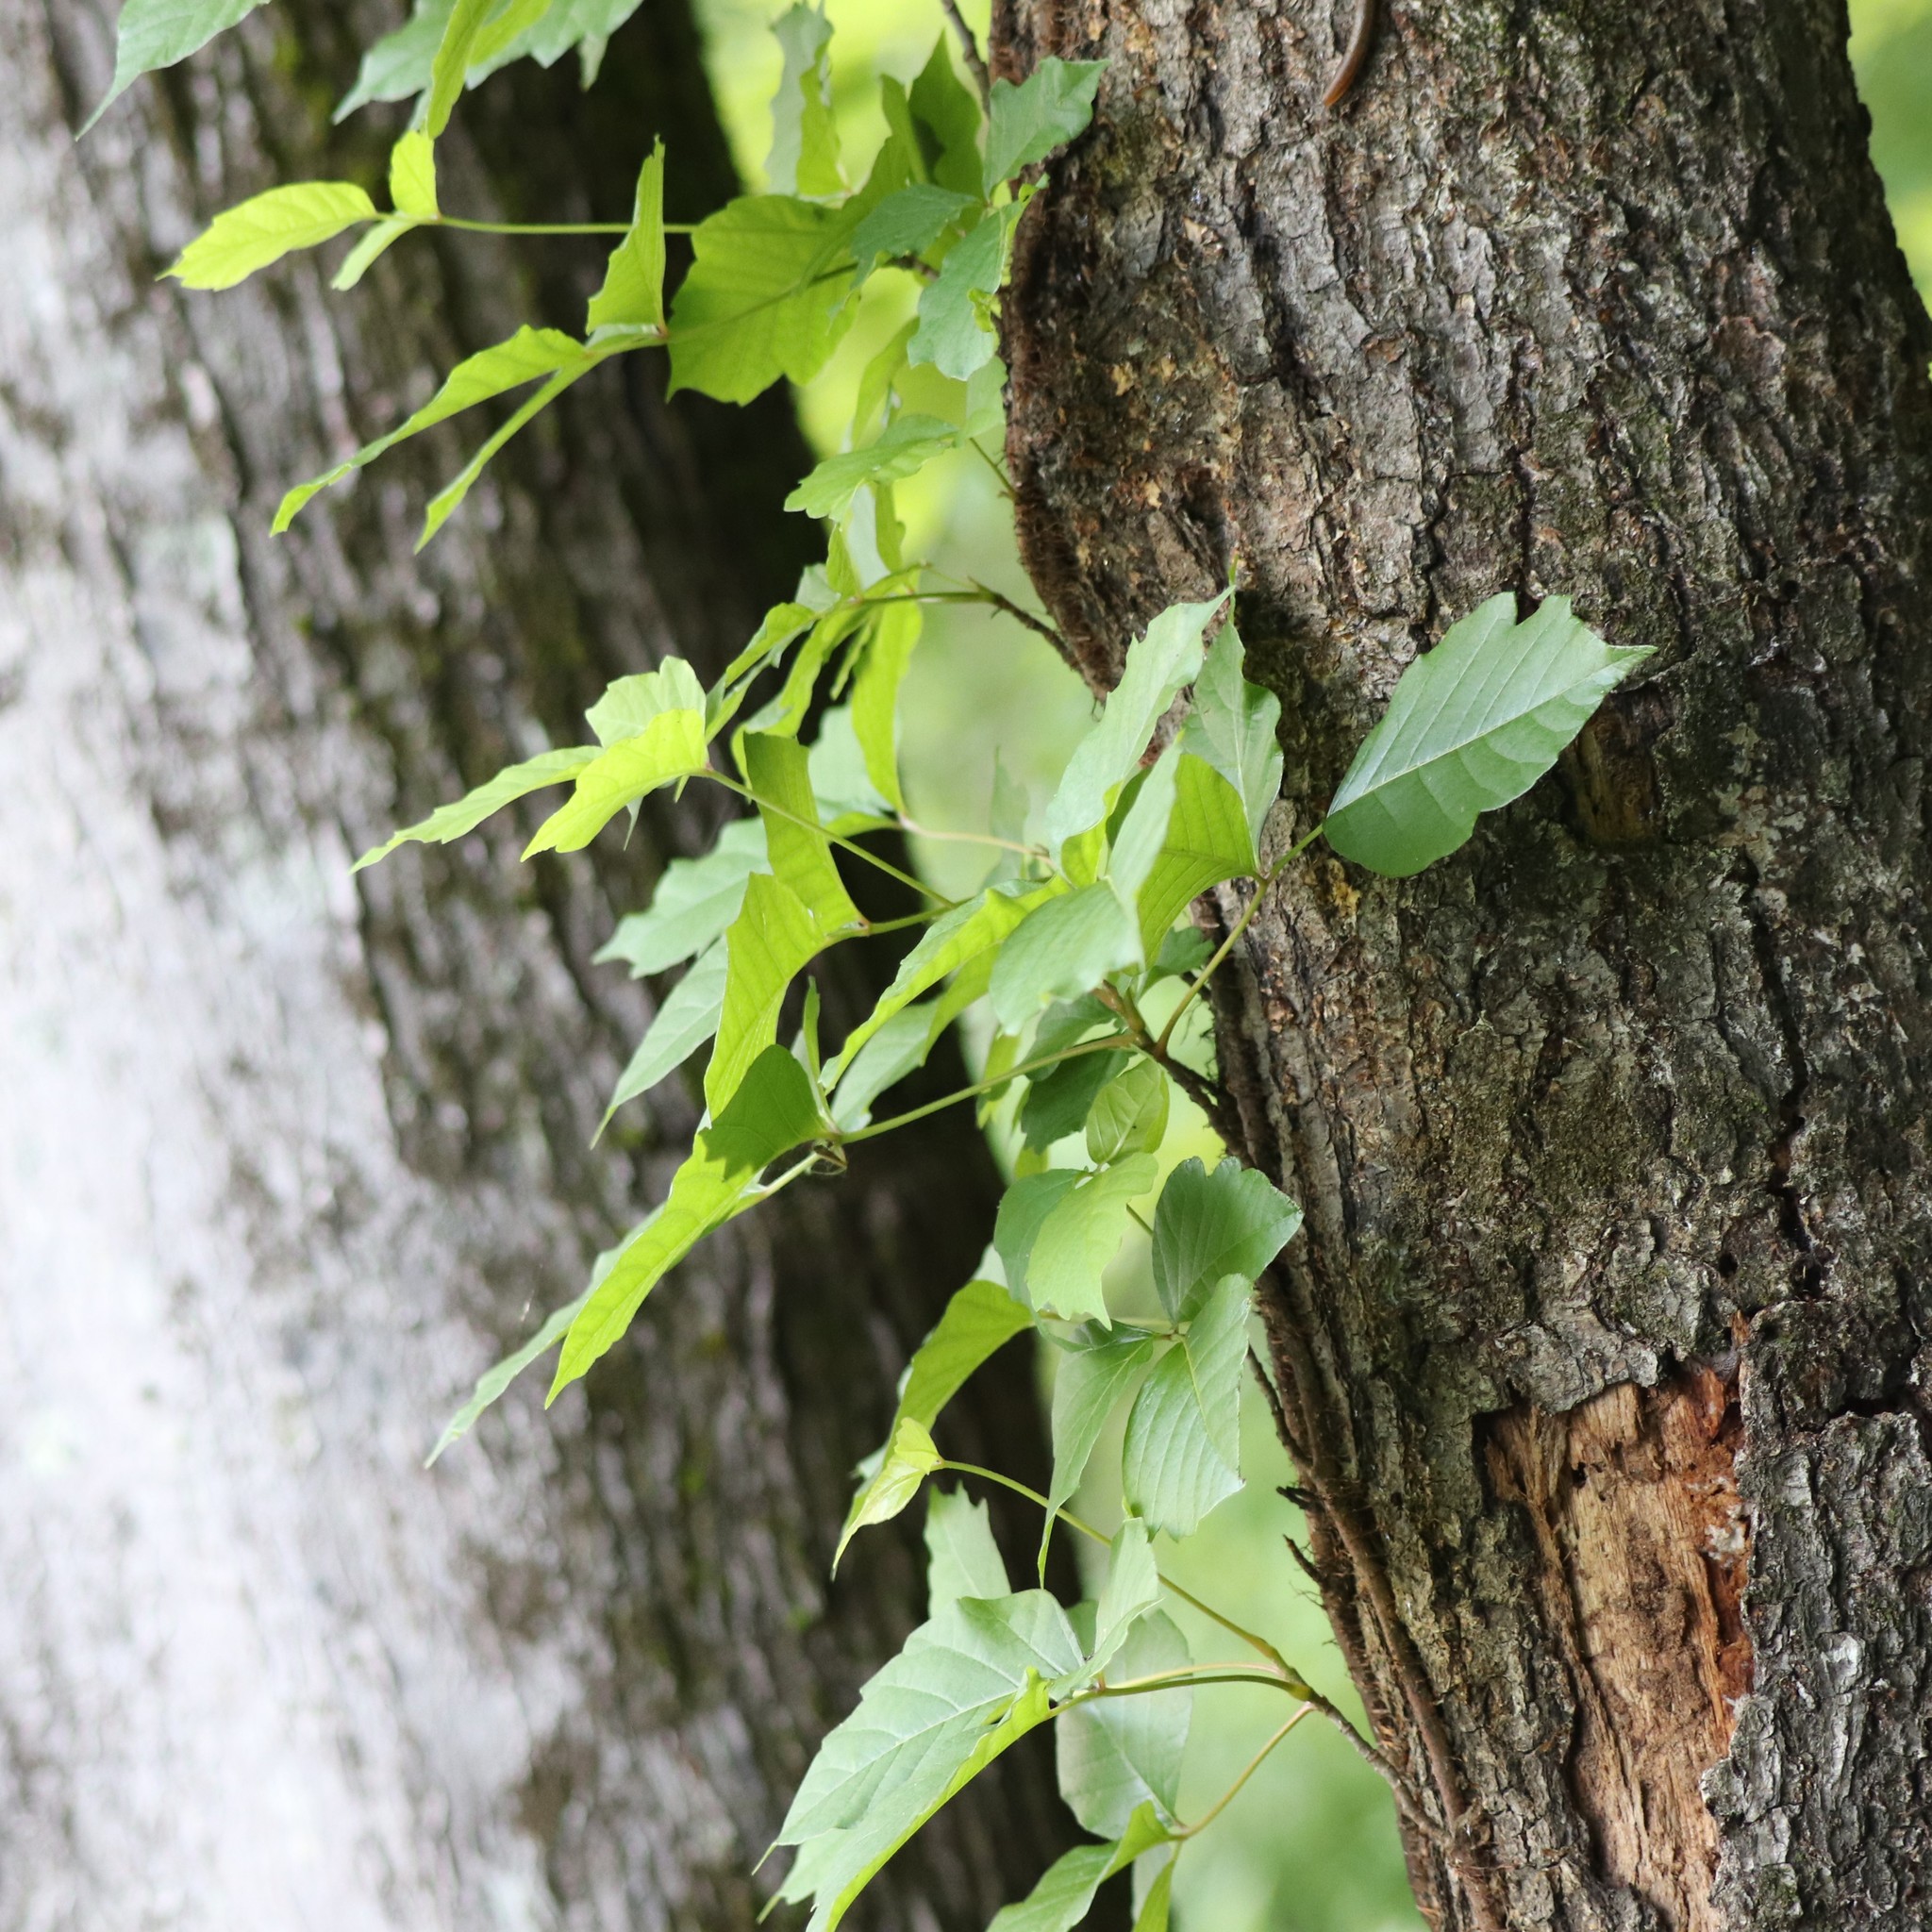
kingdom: Plantae
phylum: Tracheophyta
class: Magnoliopsida
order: Sapindales
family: Anacardiaceae
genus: Toxicodendron
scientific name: Toxicodendron radicans
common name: Poison ivy
